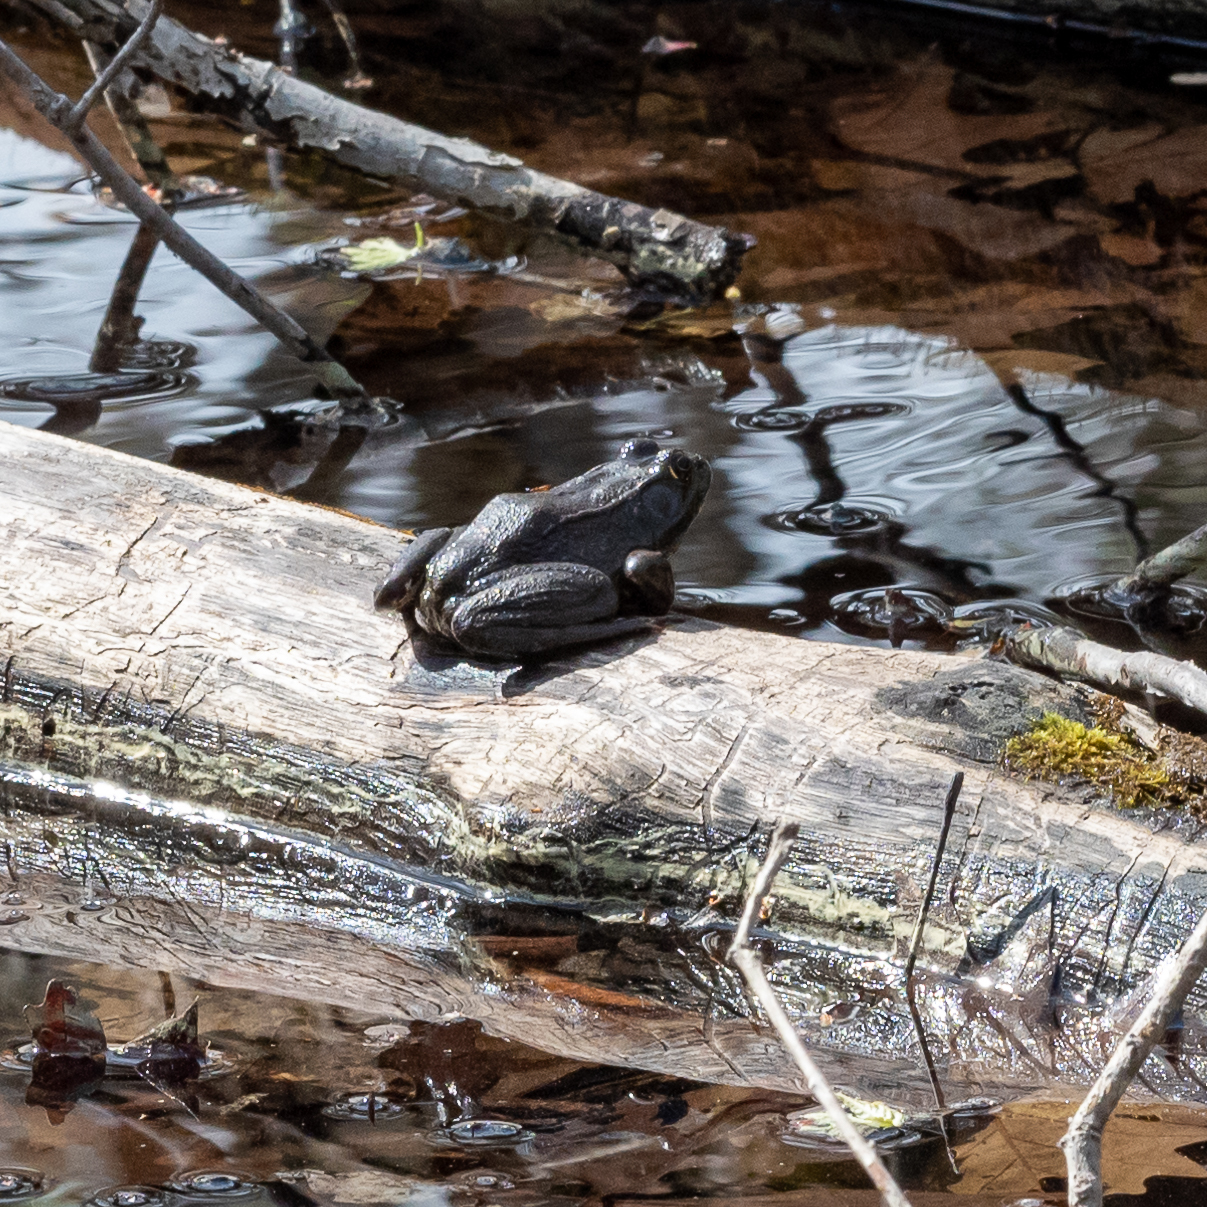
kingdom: Animalia
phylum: Chordata
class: Amphibia
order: Anura
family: Ranidae
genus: Lithobates
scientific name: Lithobates clamitans
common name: Green frog
